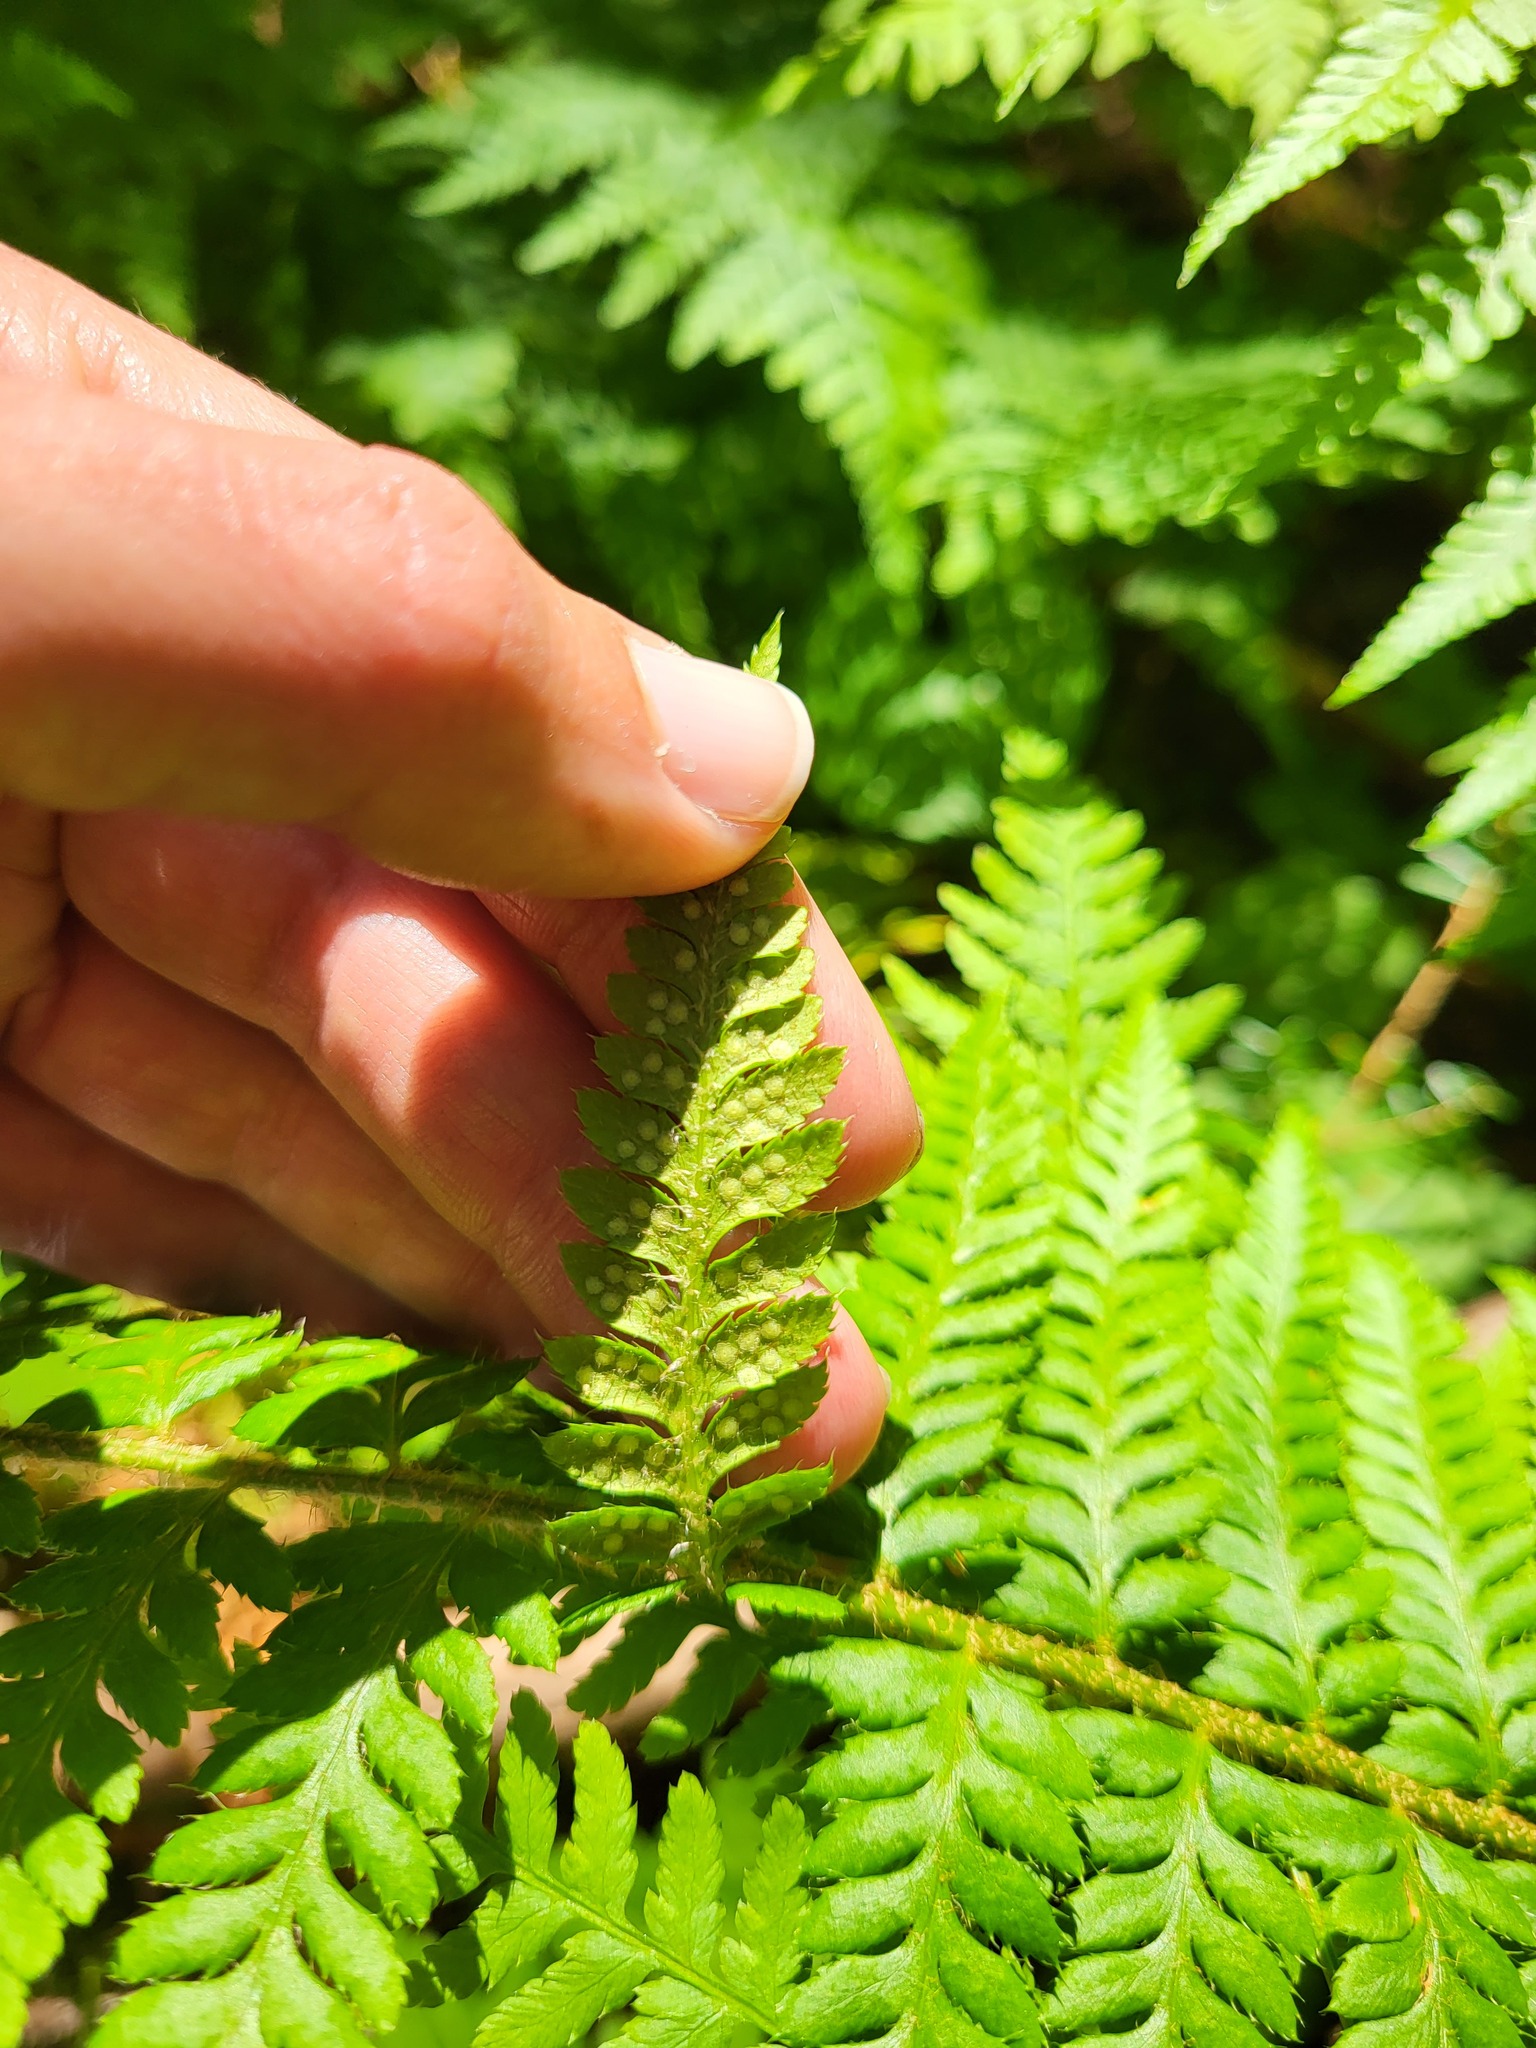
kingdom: Plantae
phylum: Tracheophyta
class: Polypodiopsida
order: Polypodiales
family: Dryopteridaceae
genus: Polystichum
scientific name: Polystichum andersonii
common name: Anderson's holly fern
